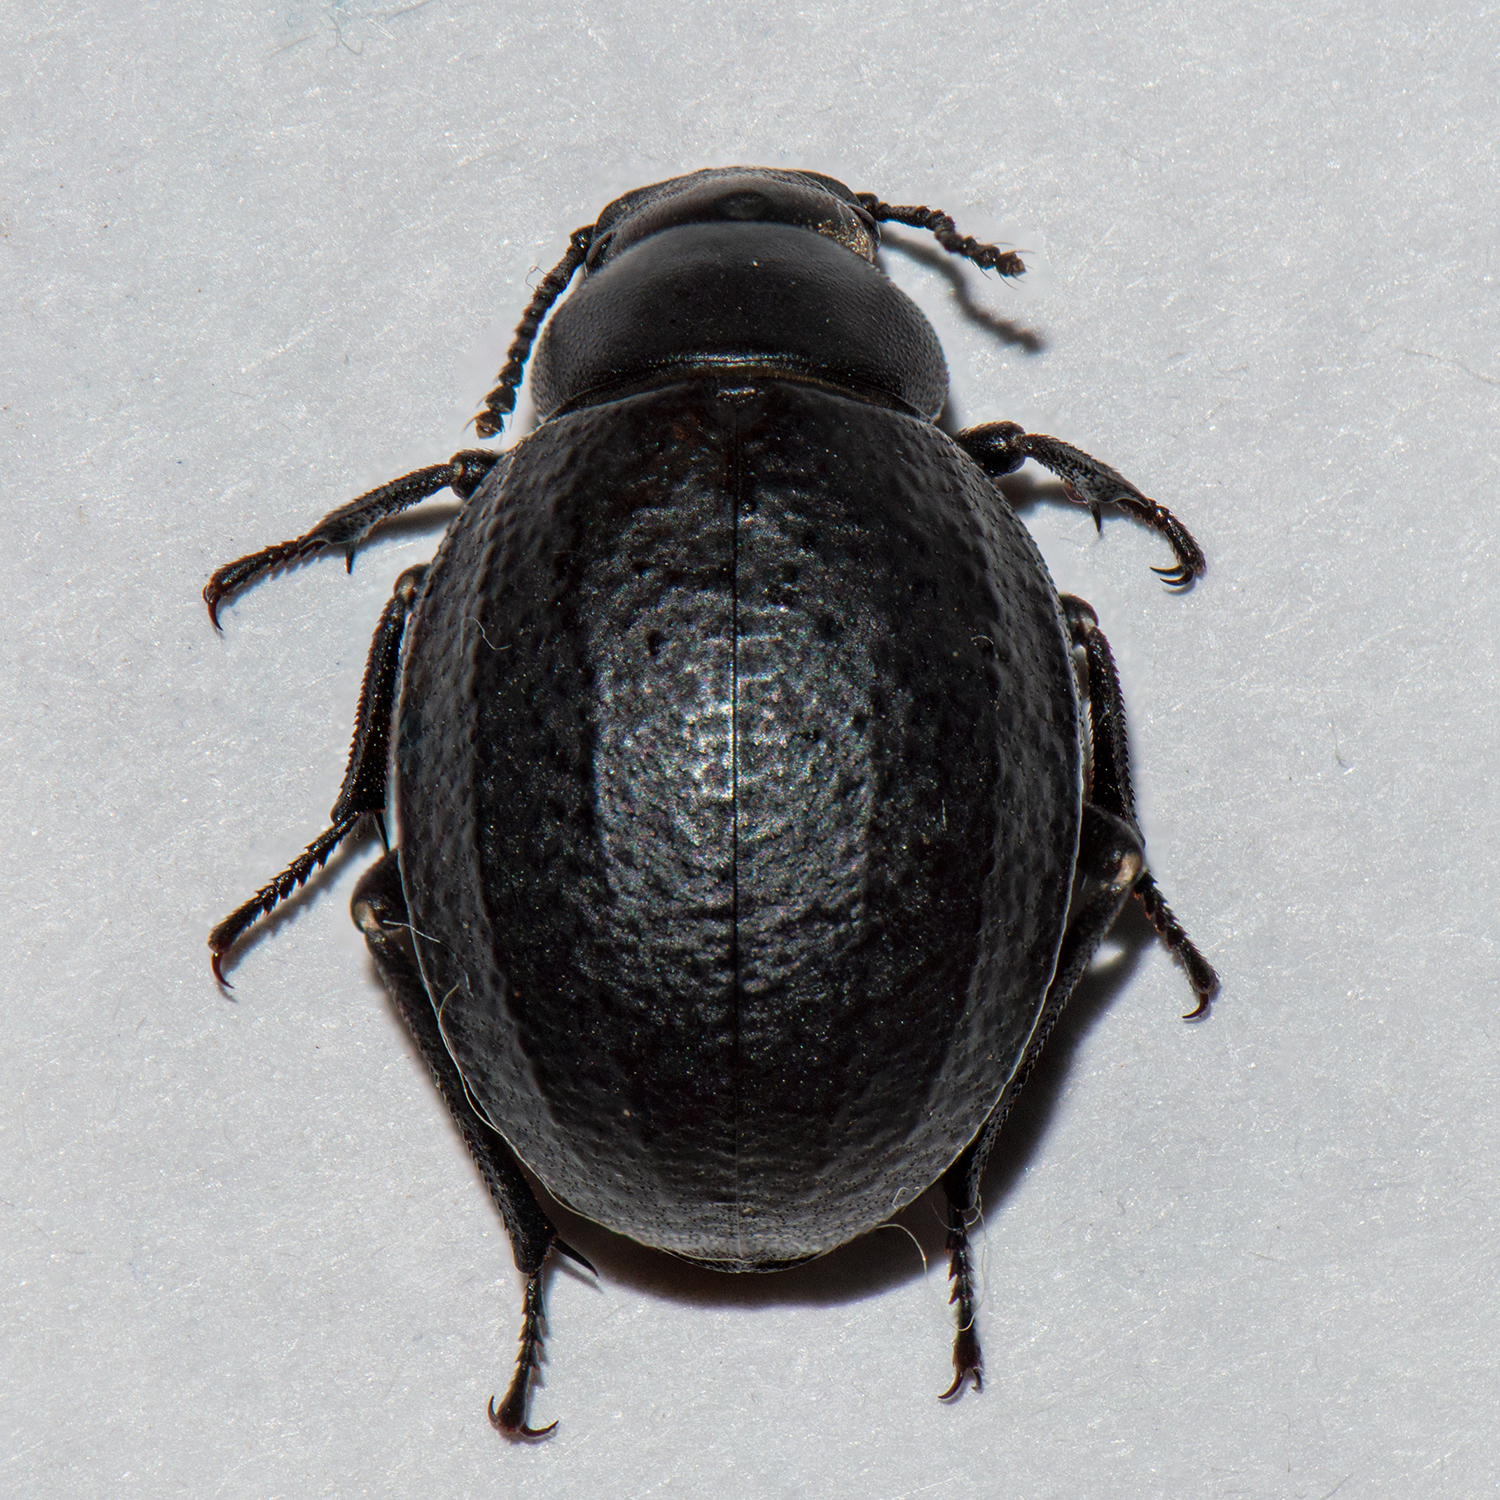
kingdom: Animalia
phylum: Arthropoda
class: Insecta
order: Coleoptera
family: Tenebrionidae
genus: Pimelia
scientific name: Pimelia subglobosa
